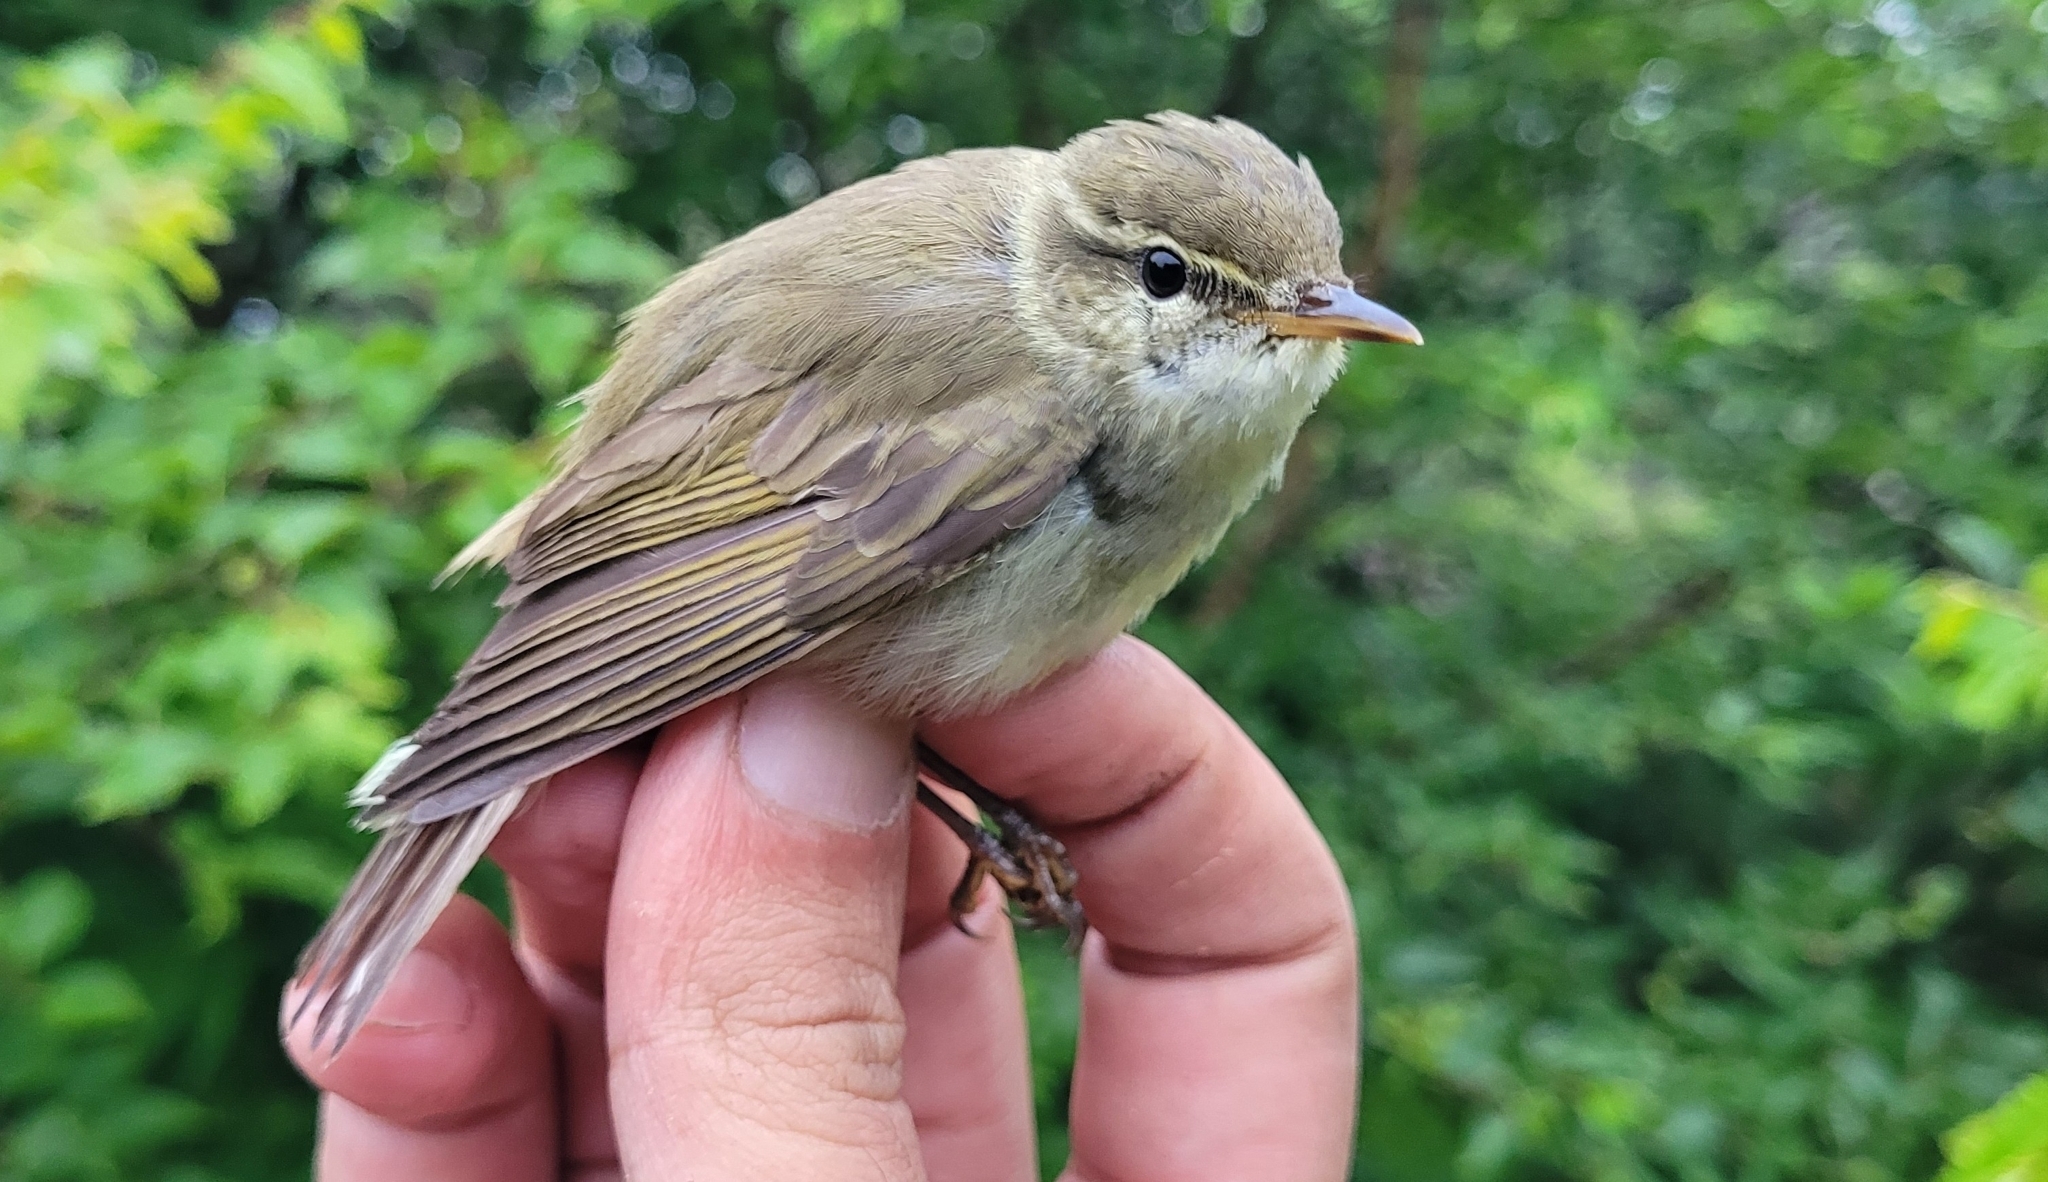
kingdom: Animalia
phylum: Chordata
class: Aves
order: Passeriformes
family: Phylloscopidae
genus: Phylloscopus
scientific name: Phylloscopus borealis
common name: Arctic warbler
